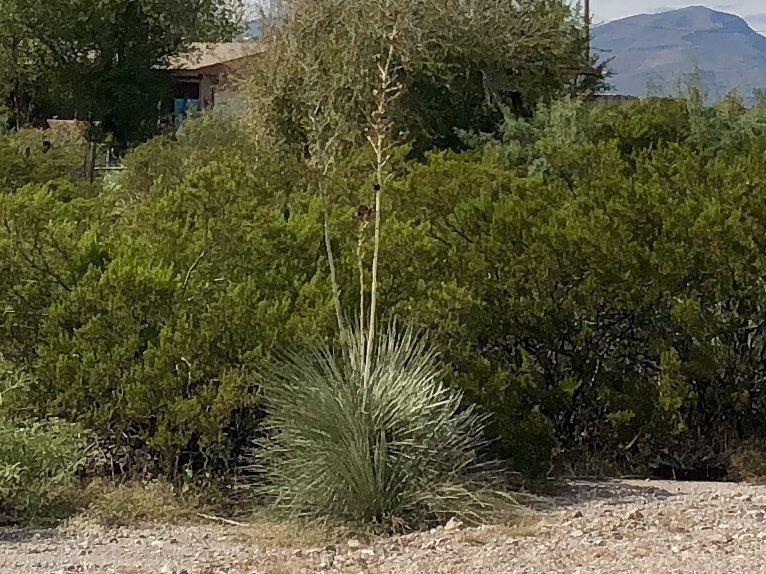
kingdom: Plantae
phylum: Tracheophyta
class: Liliopsida
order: Asparagales
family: Asparagaceae
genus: Yucca
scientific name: Yucca elata
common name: Palmella
